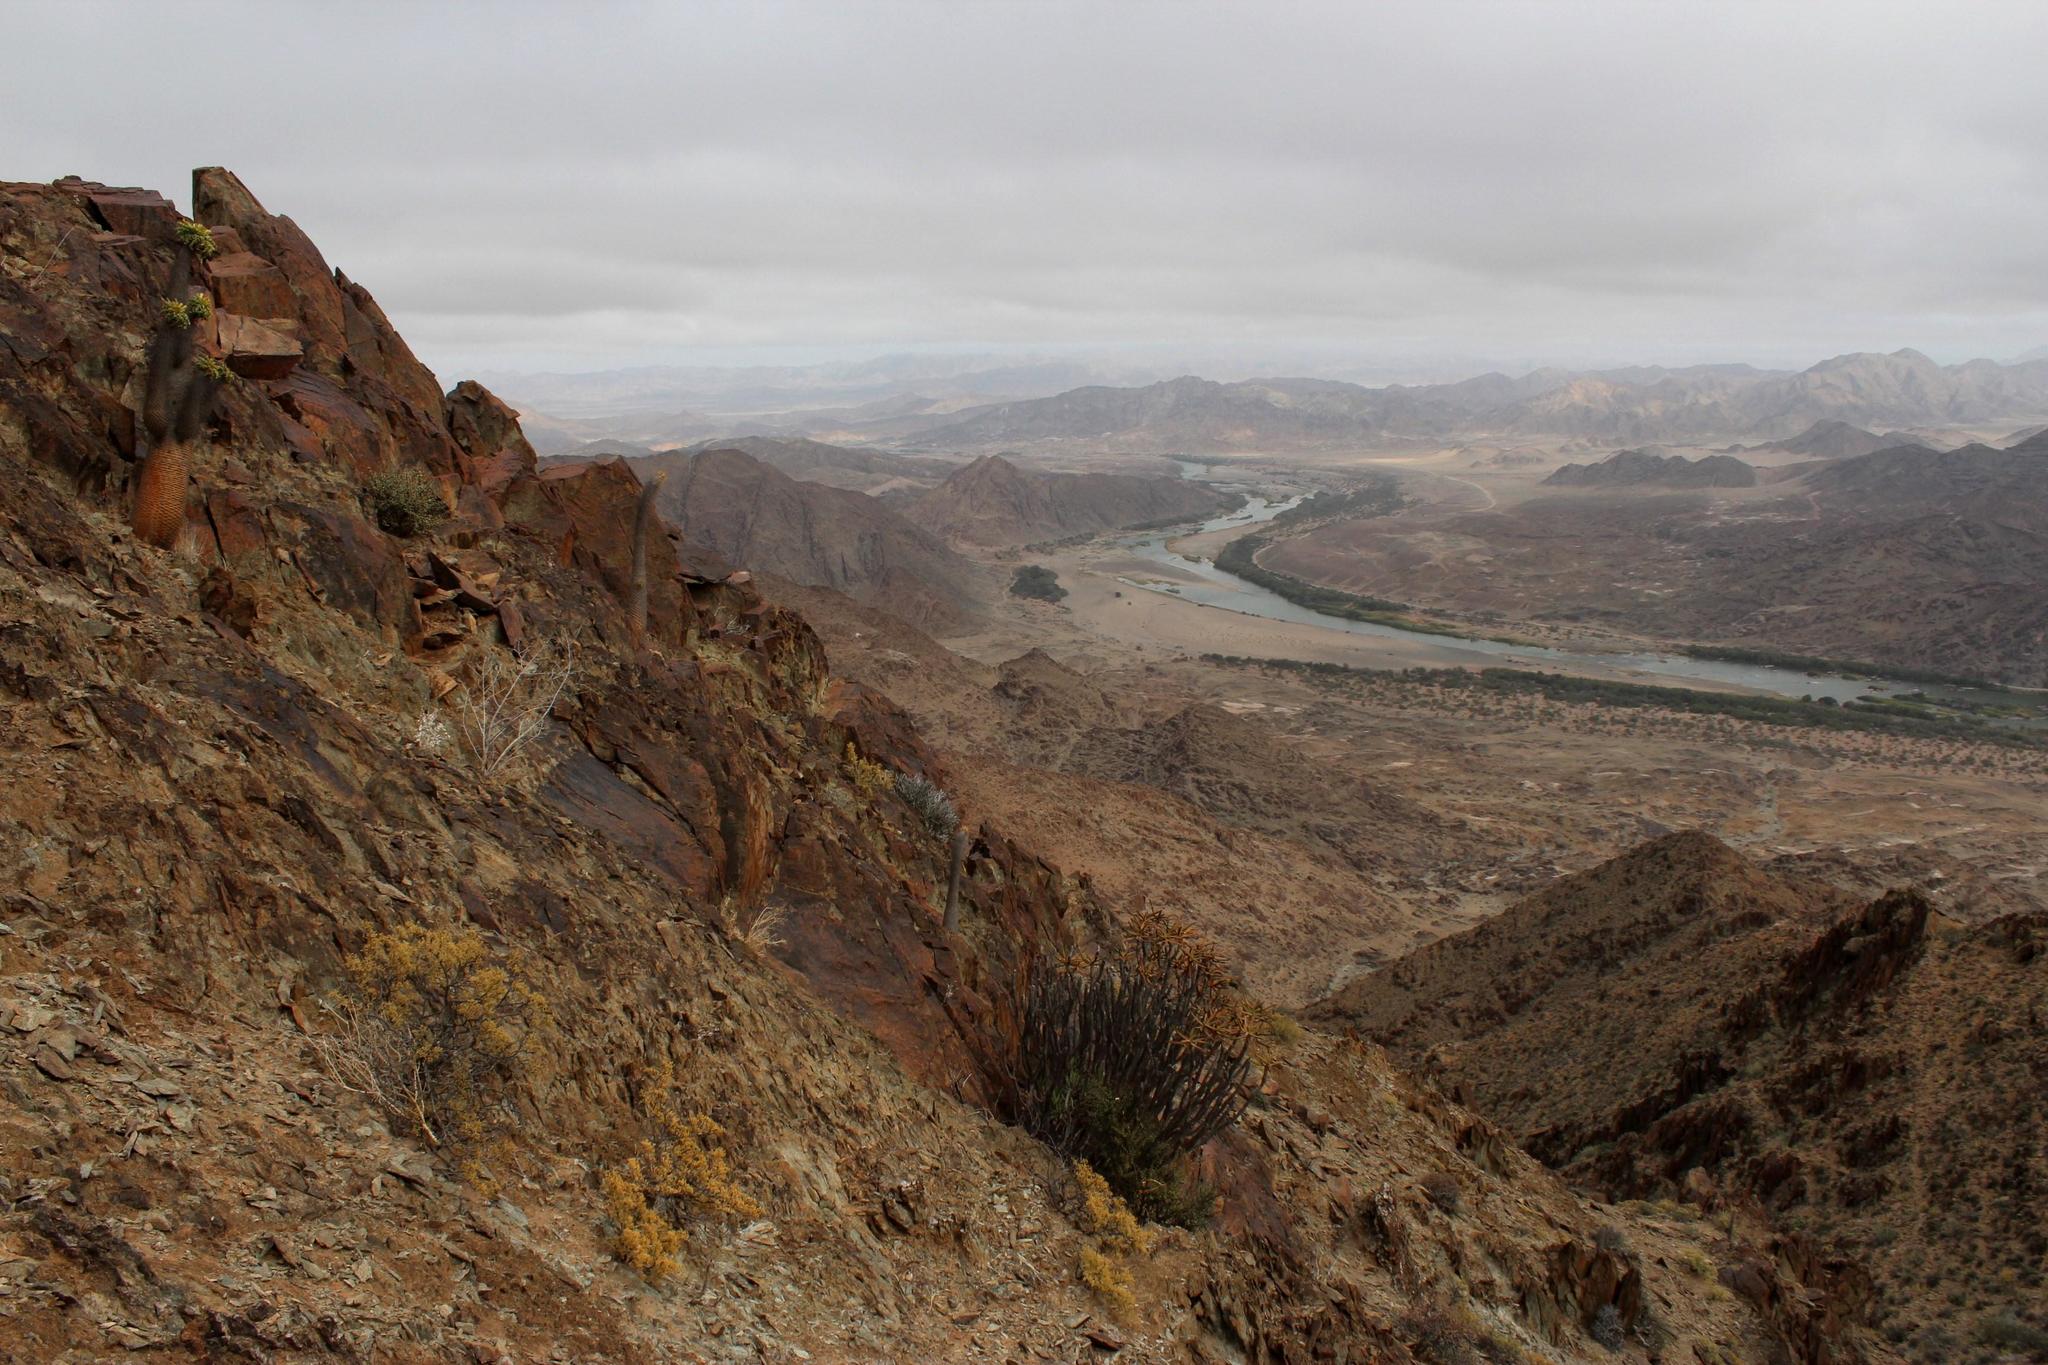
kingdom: Plantae
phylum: Tracheophyta
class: Liliopsida
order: Asparagales
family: Asphodelaceae
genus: Aloidendron
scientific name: Aloidendron ramosissimum
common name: Bush quiver tree
